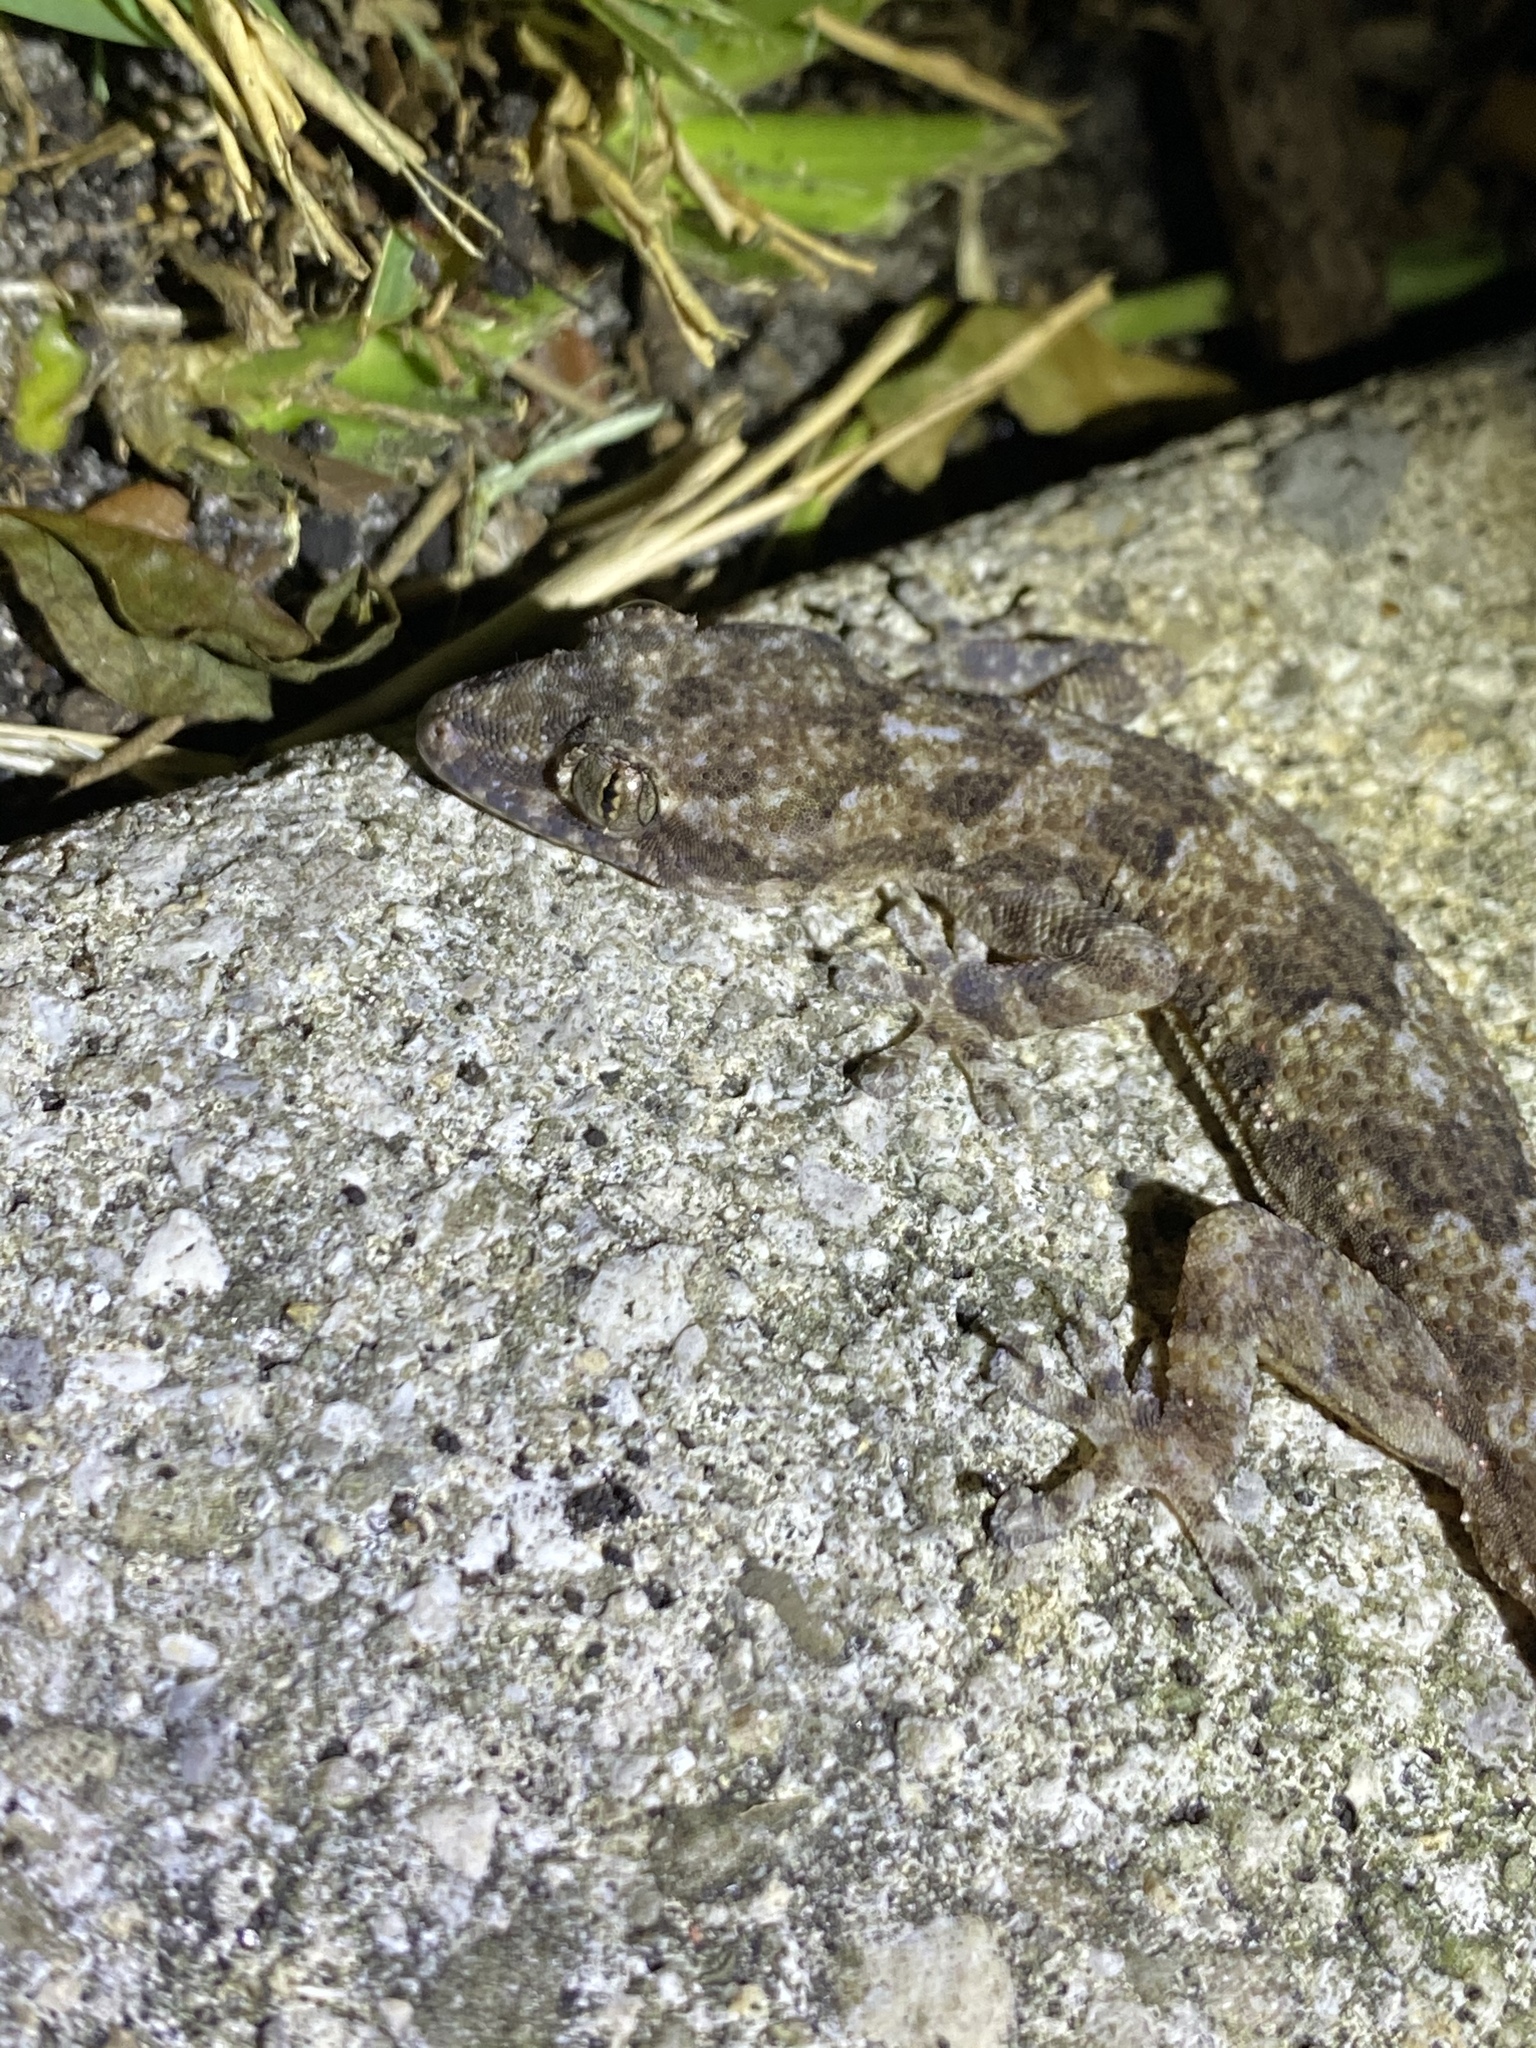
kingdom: Animalia
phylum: Chordata
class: Squamata
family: Gekkonidae
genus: Hemidactylus
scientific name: Hemidactylus mabouia
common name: House gecko
